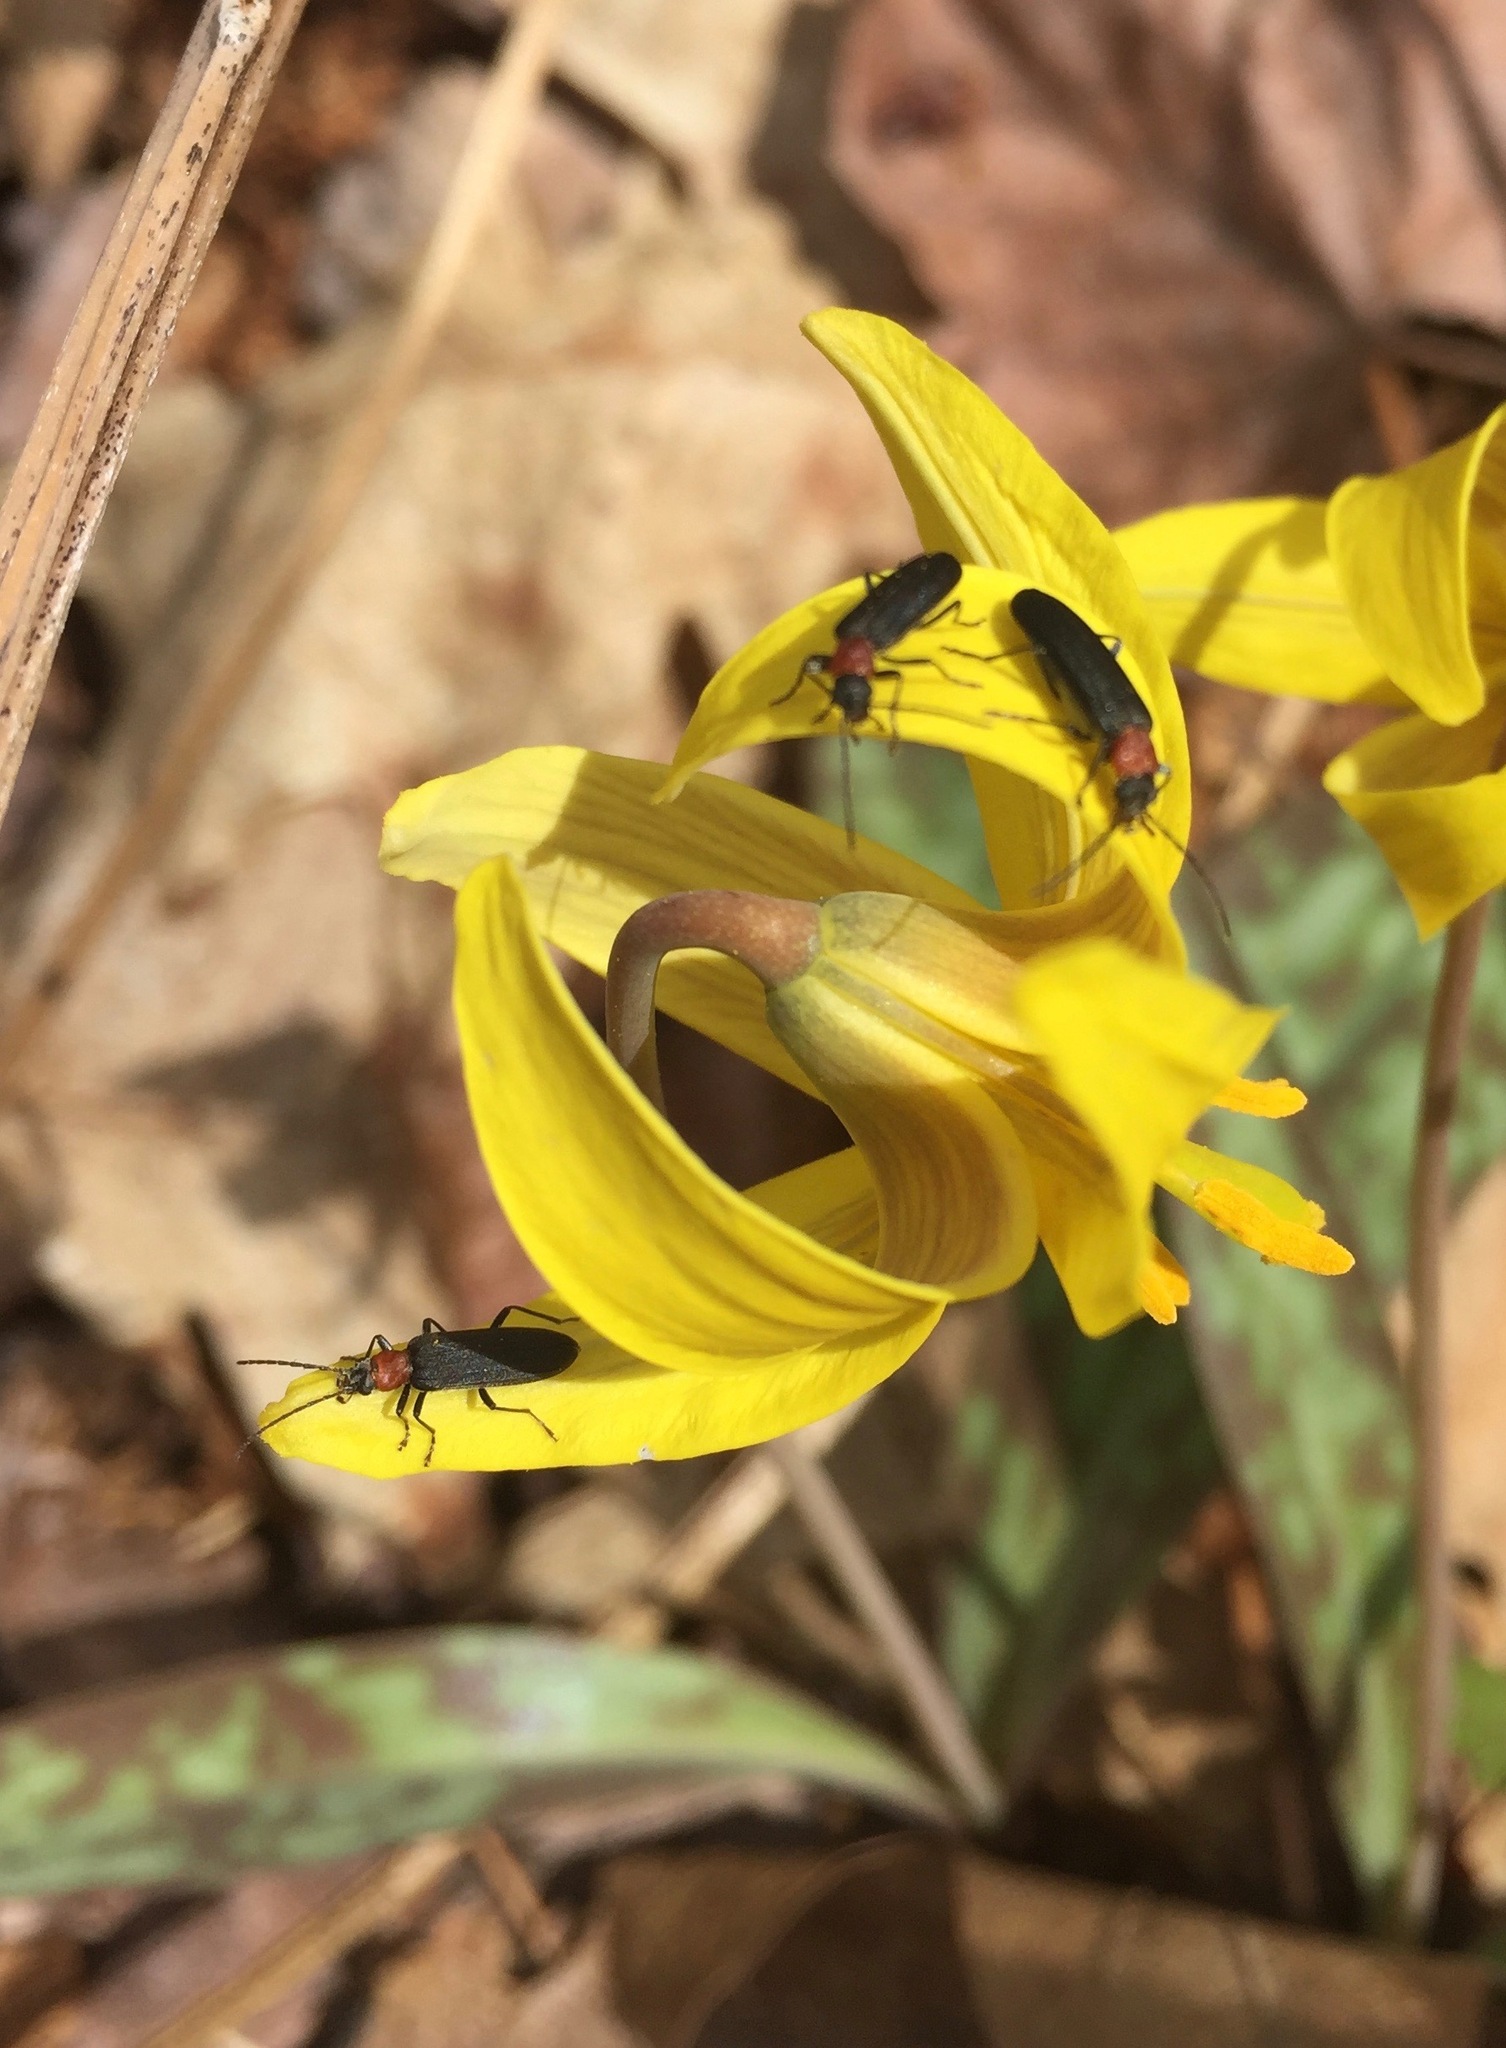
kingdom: Animalia
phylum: Arthropoda
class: Insecta
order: Coleoptera
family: Oedemeridae
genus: Ischnomera
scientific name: Ischnomera
